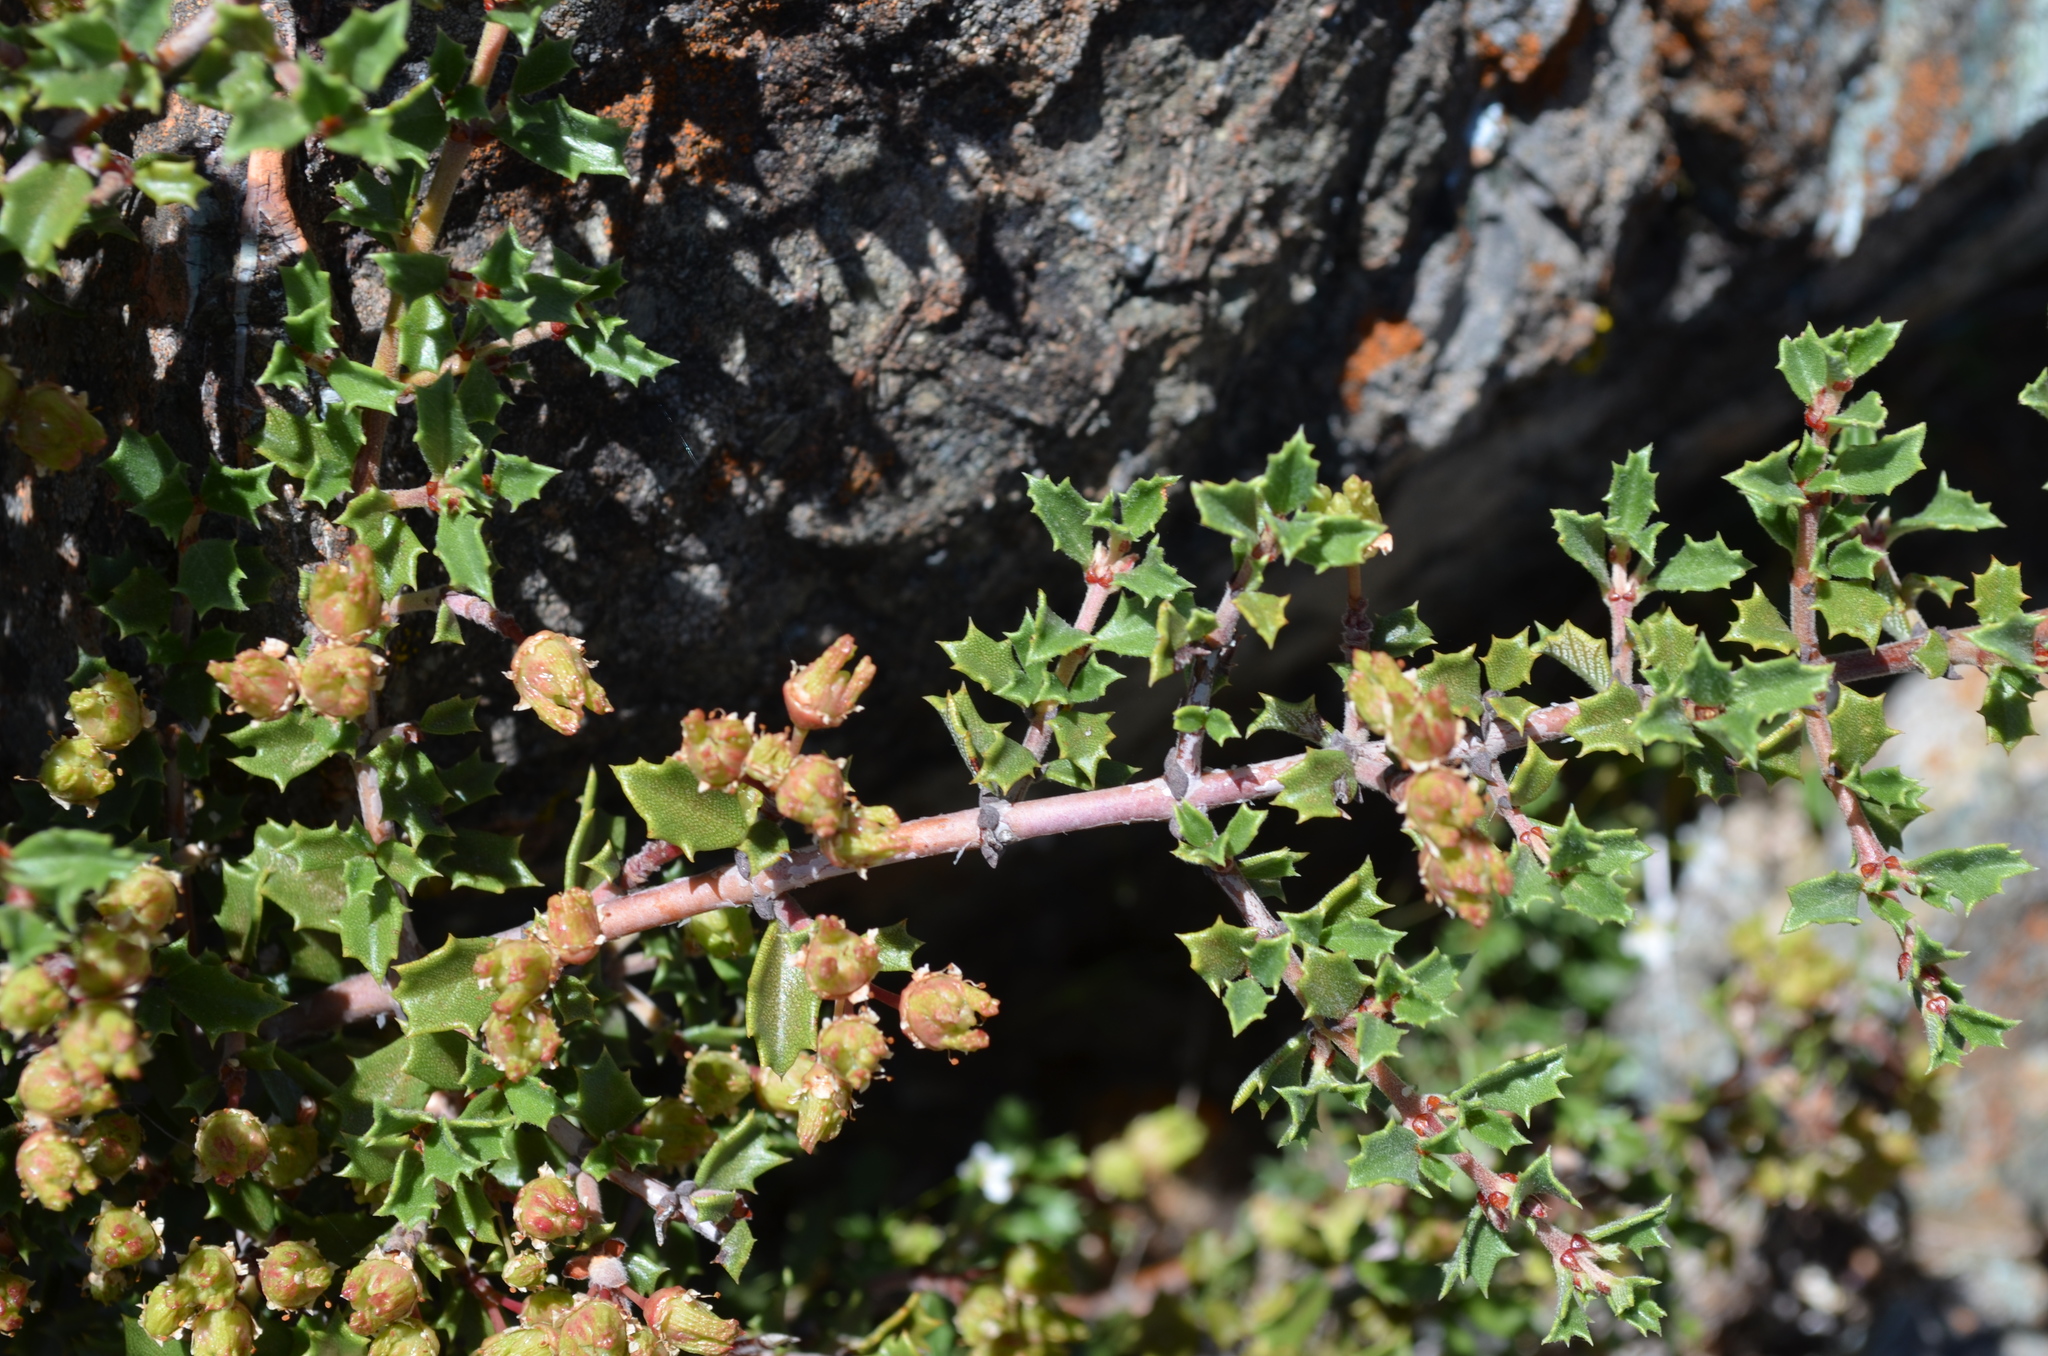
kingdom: Plantae
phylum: Tracheophyta
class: Magnoliopsida
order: Rosales
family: Rhamnaceae
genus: Ceanothus
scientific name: Ceanothus divergens
